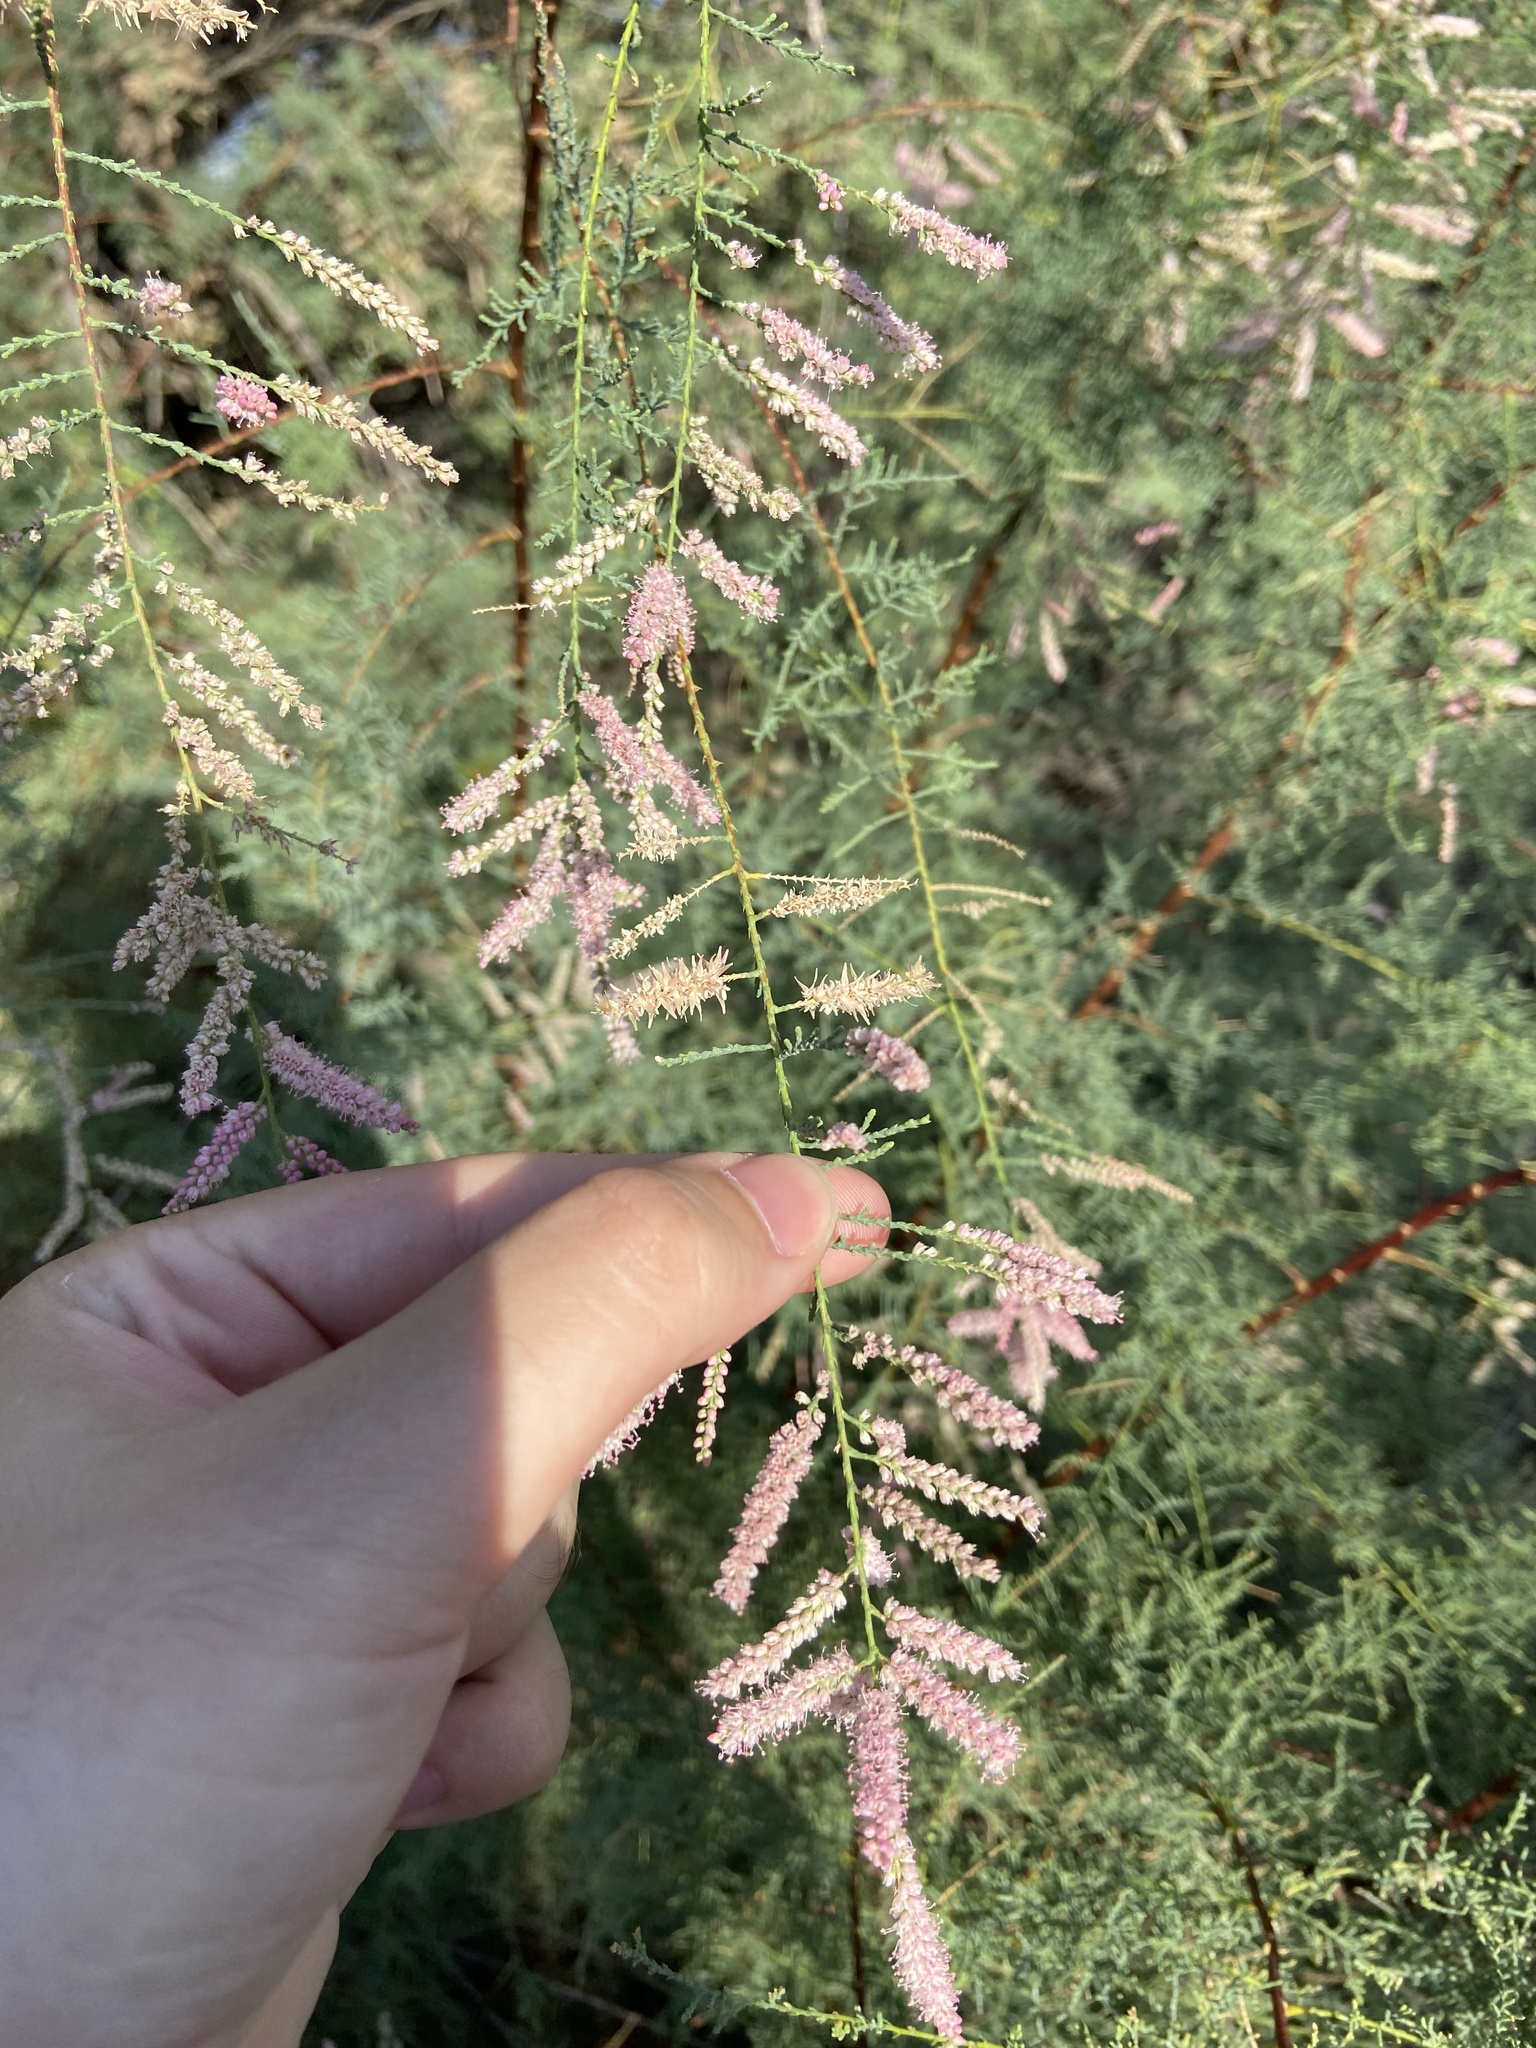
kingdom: Plantae
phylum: Tracheophyta
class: Magnoliopsida
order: Caryophyllales
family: Tamaricaceae
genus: Tamarix
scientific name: Tamarix
